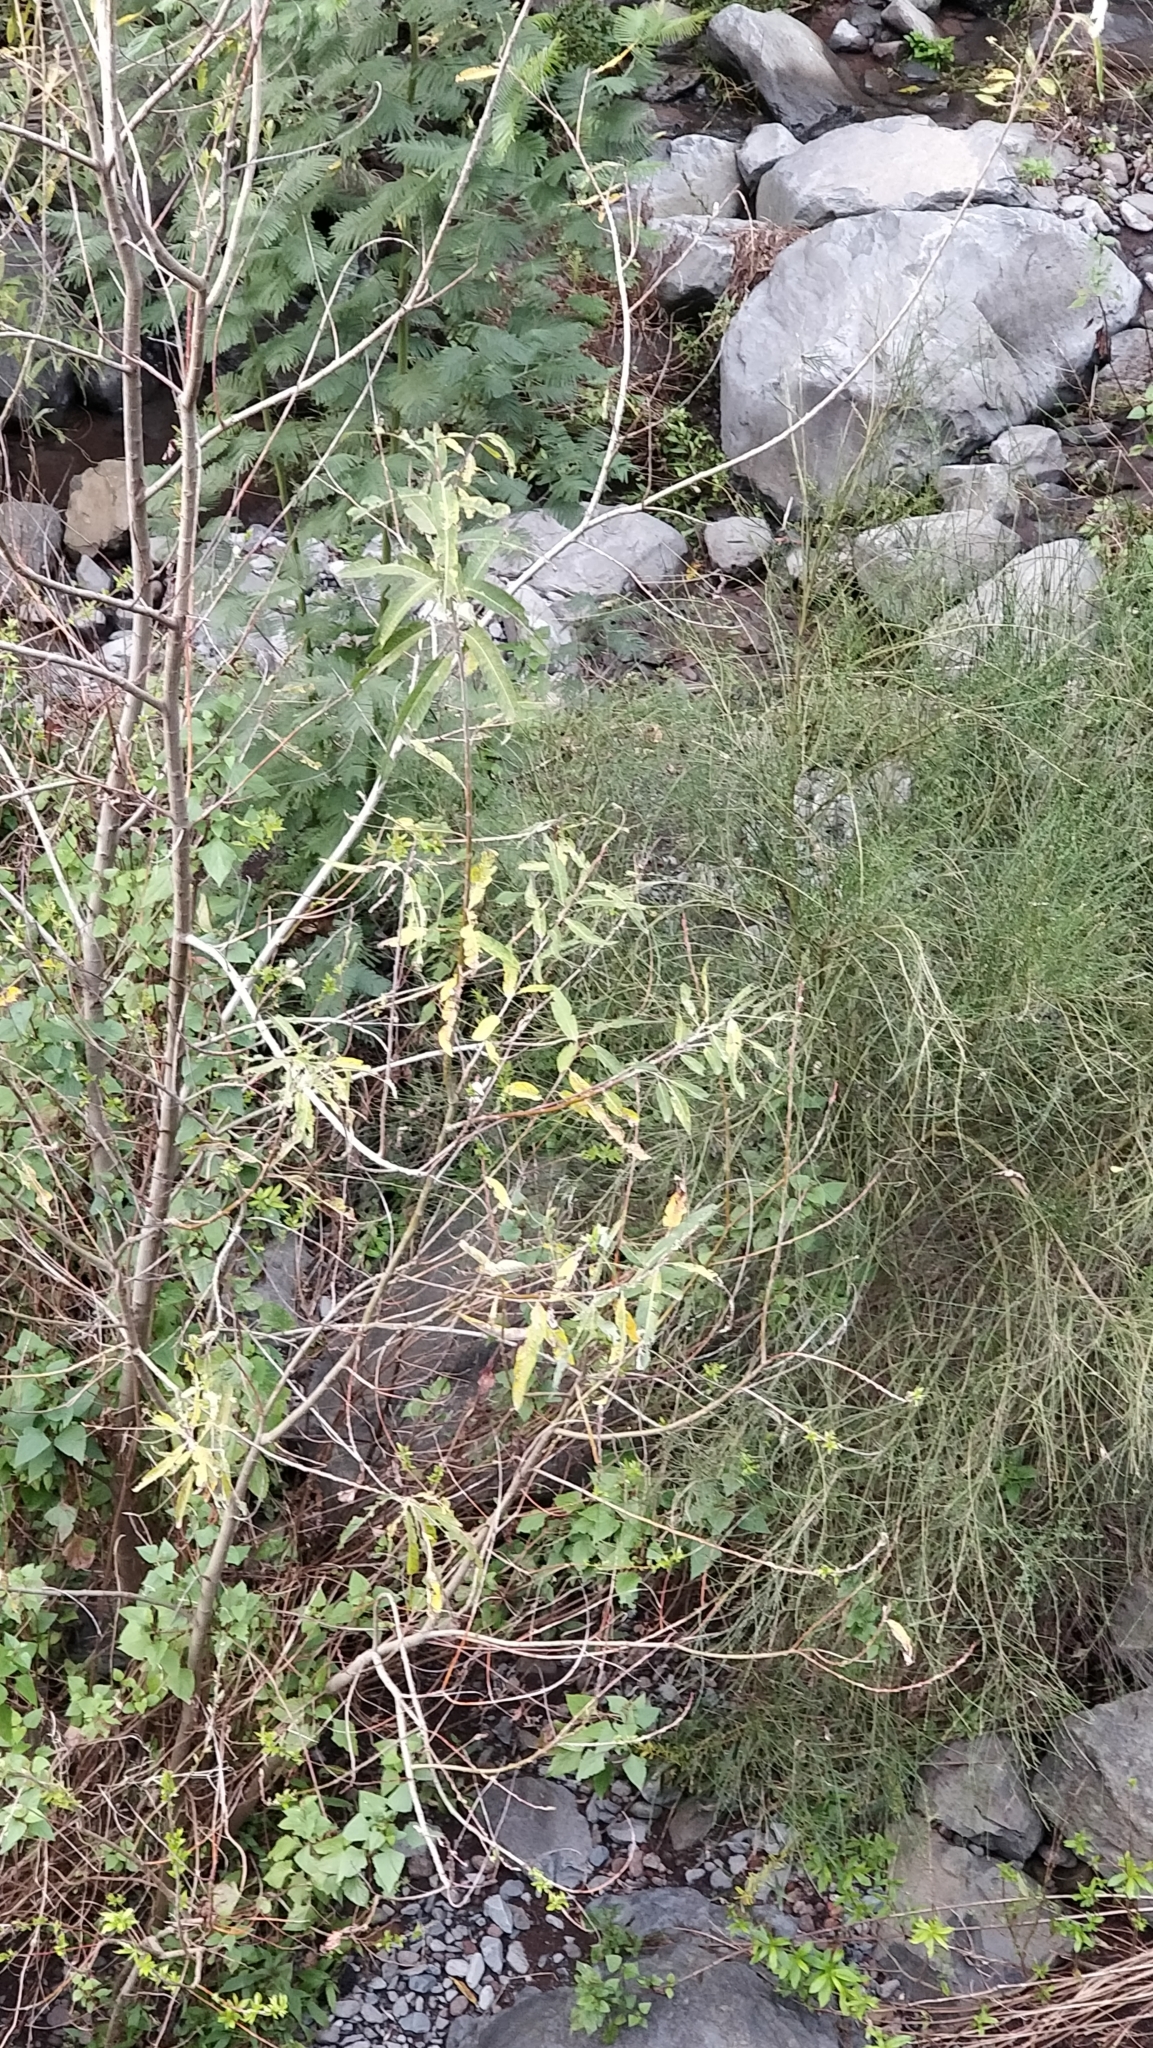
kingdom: Plantae
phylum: Tracheophyta
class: Magnoliopsida
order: Malpighiales
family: Salicaceae
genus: Salix
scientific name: Salix canariensis
